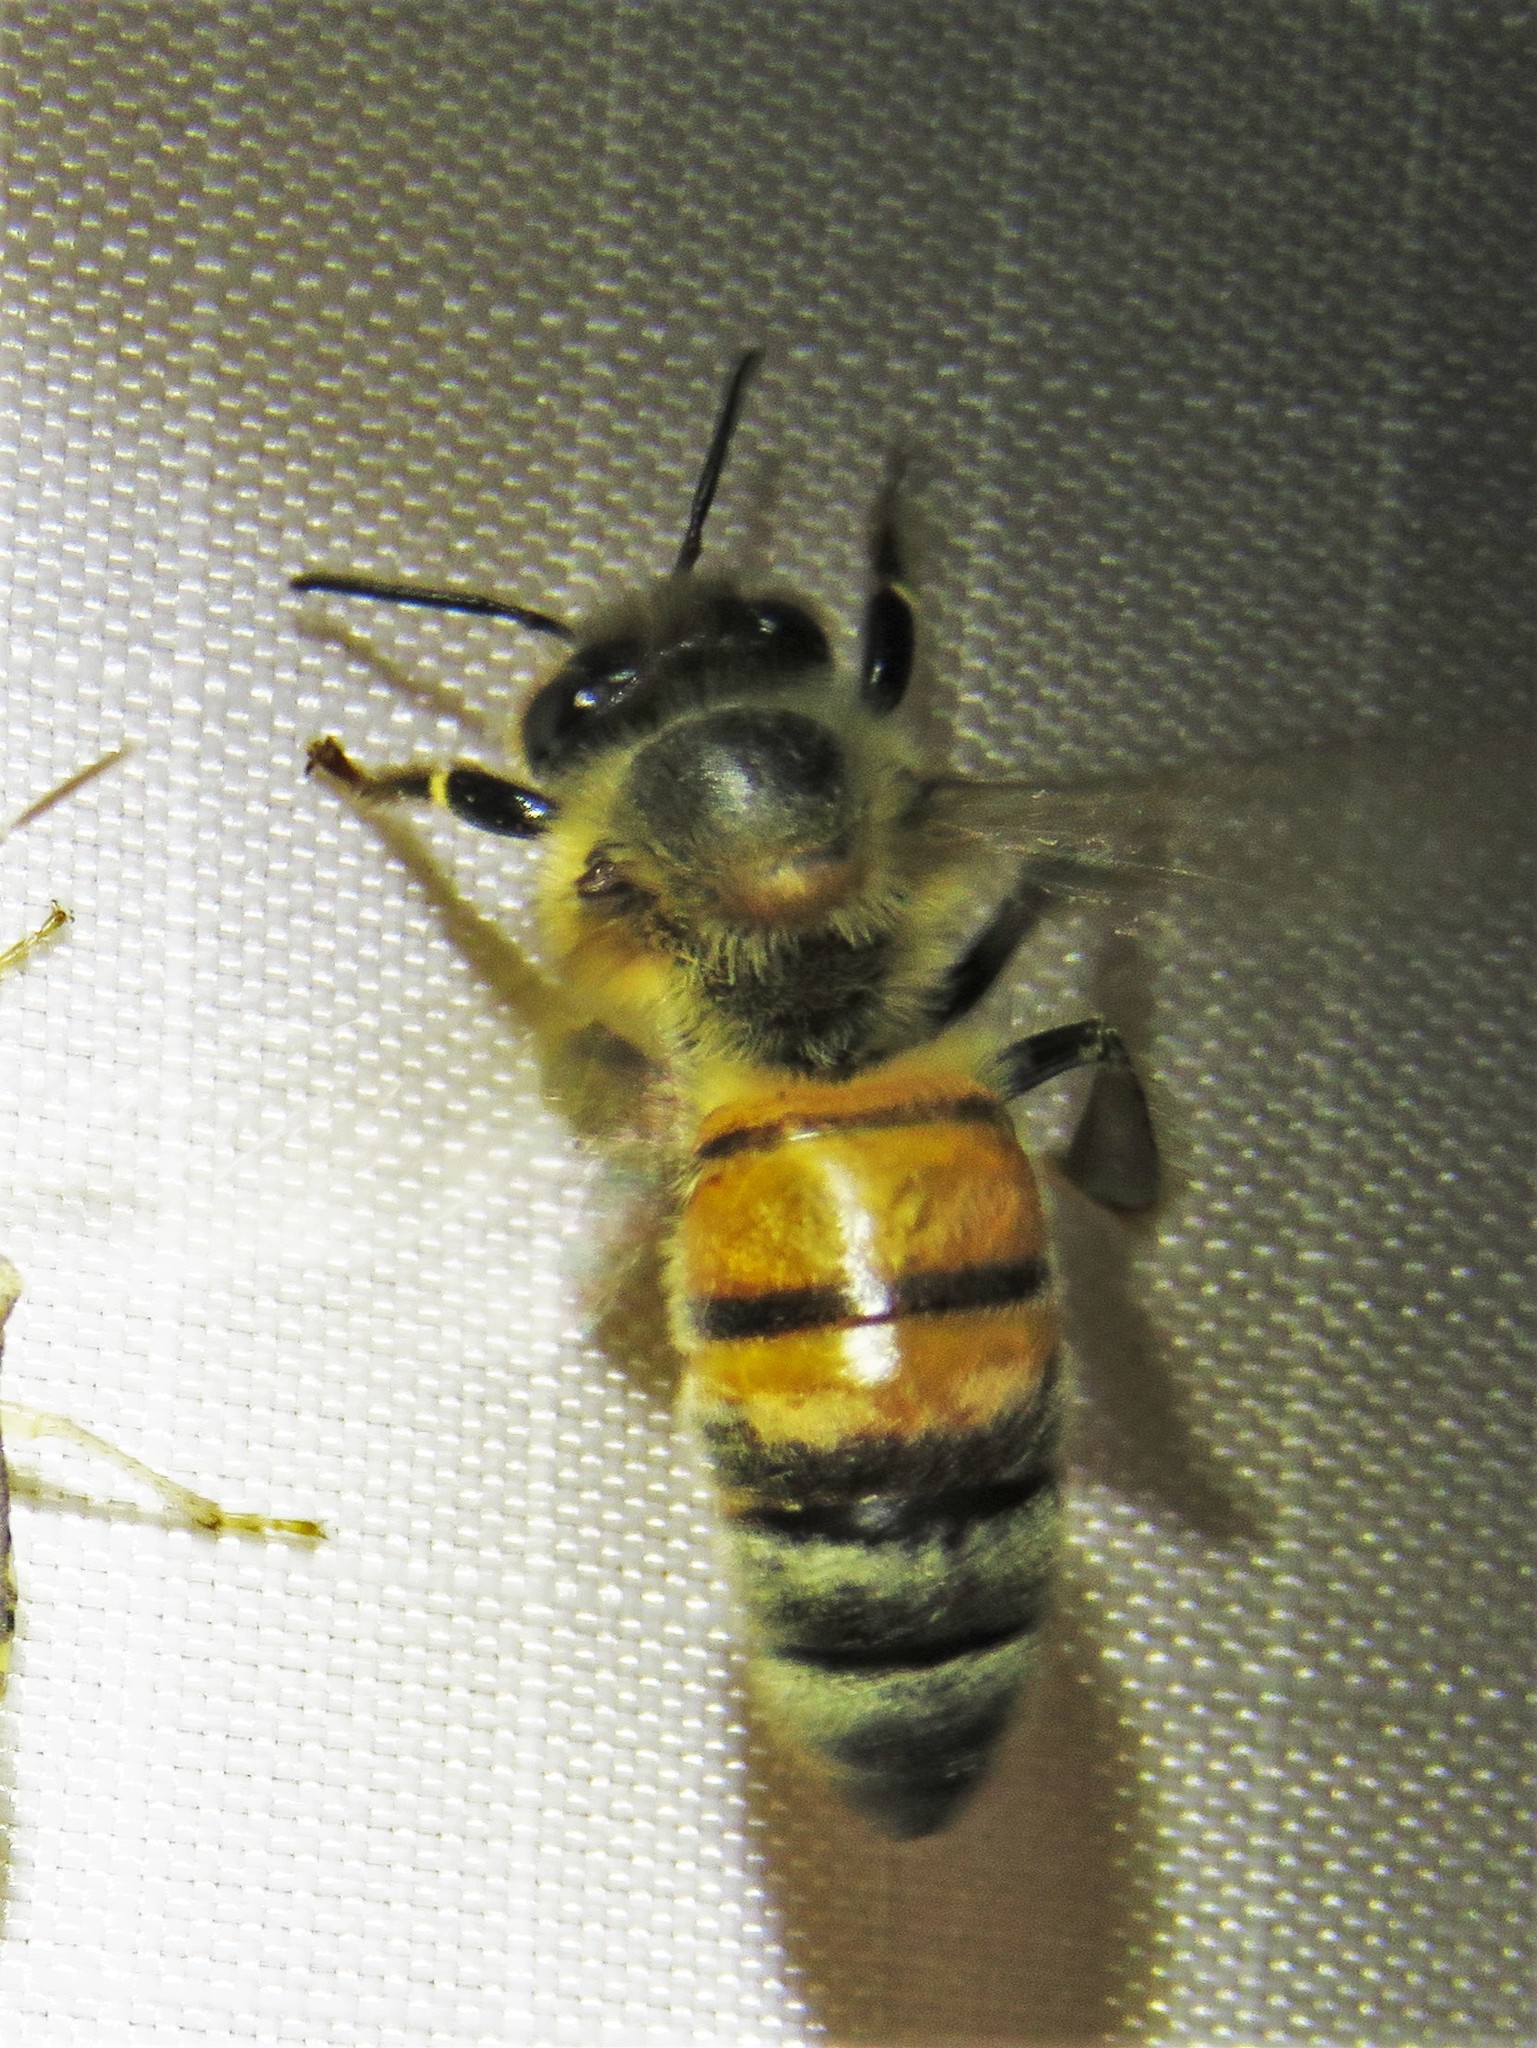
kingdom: Animalia
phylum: Arthropoda
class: Insecta
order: Hymenoptera
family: Apidae
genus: Apis
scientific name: Apis mellifera
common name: Honey bee
